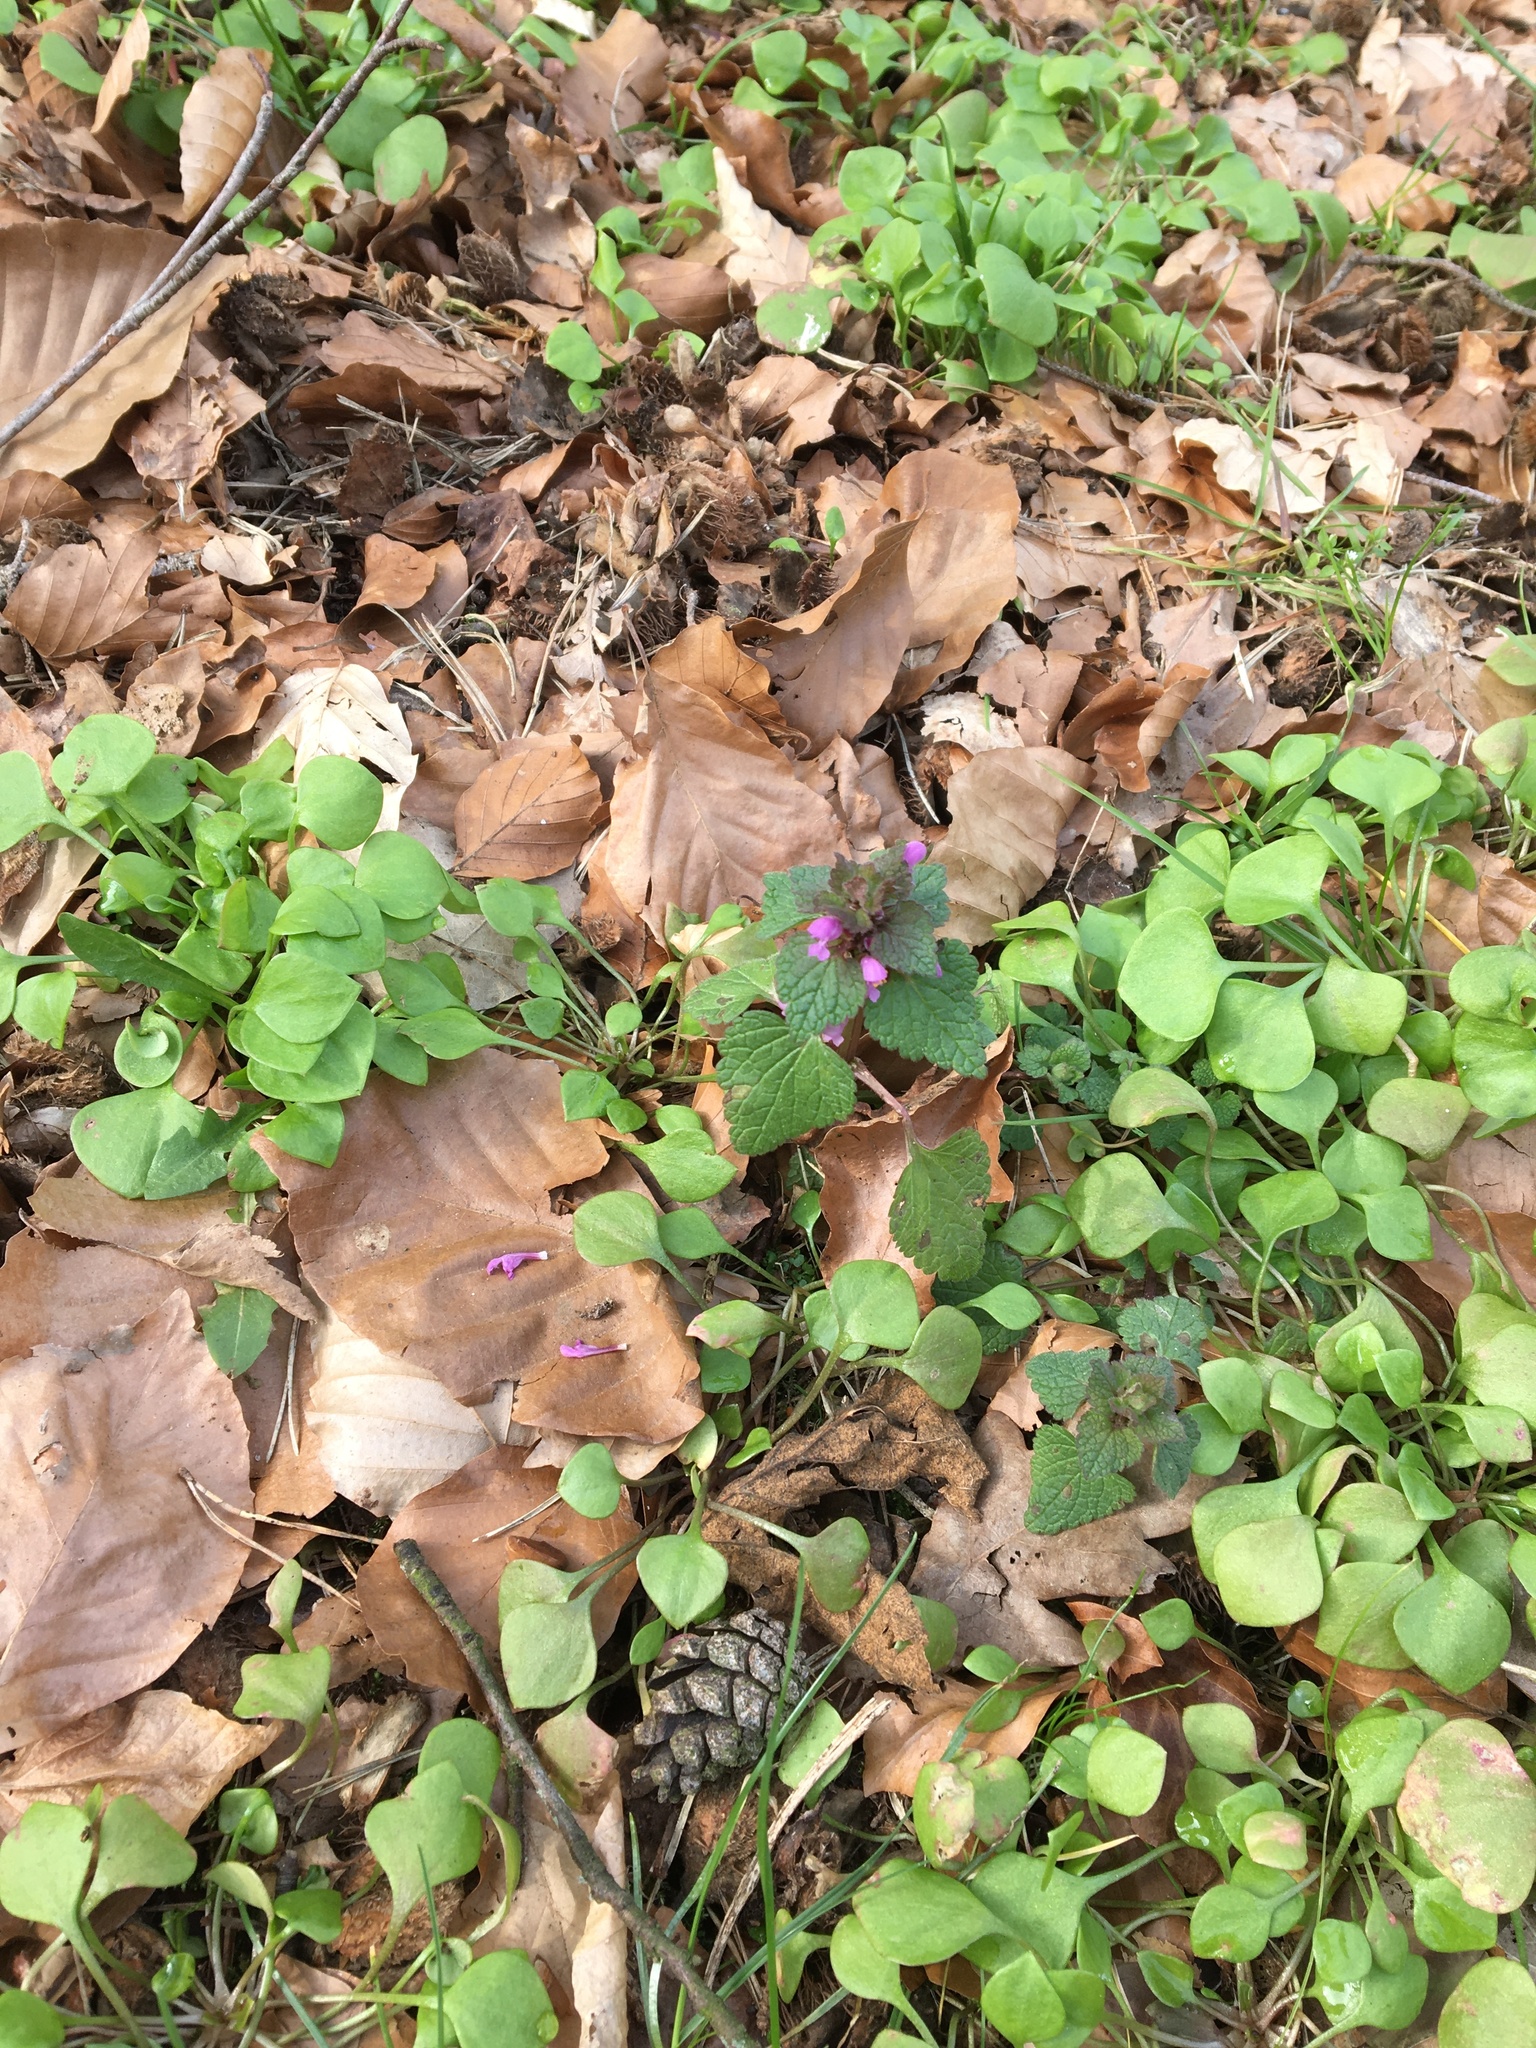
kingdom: Plantae
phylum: Tracheophyta
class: Magnoliopsida
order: Lamiales
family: Lamiaceae
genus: Lamium
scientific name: Lamium purpureum
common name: Red dead-nettle
